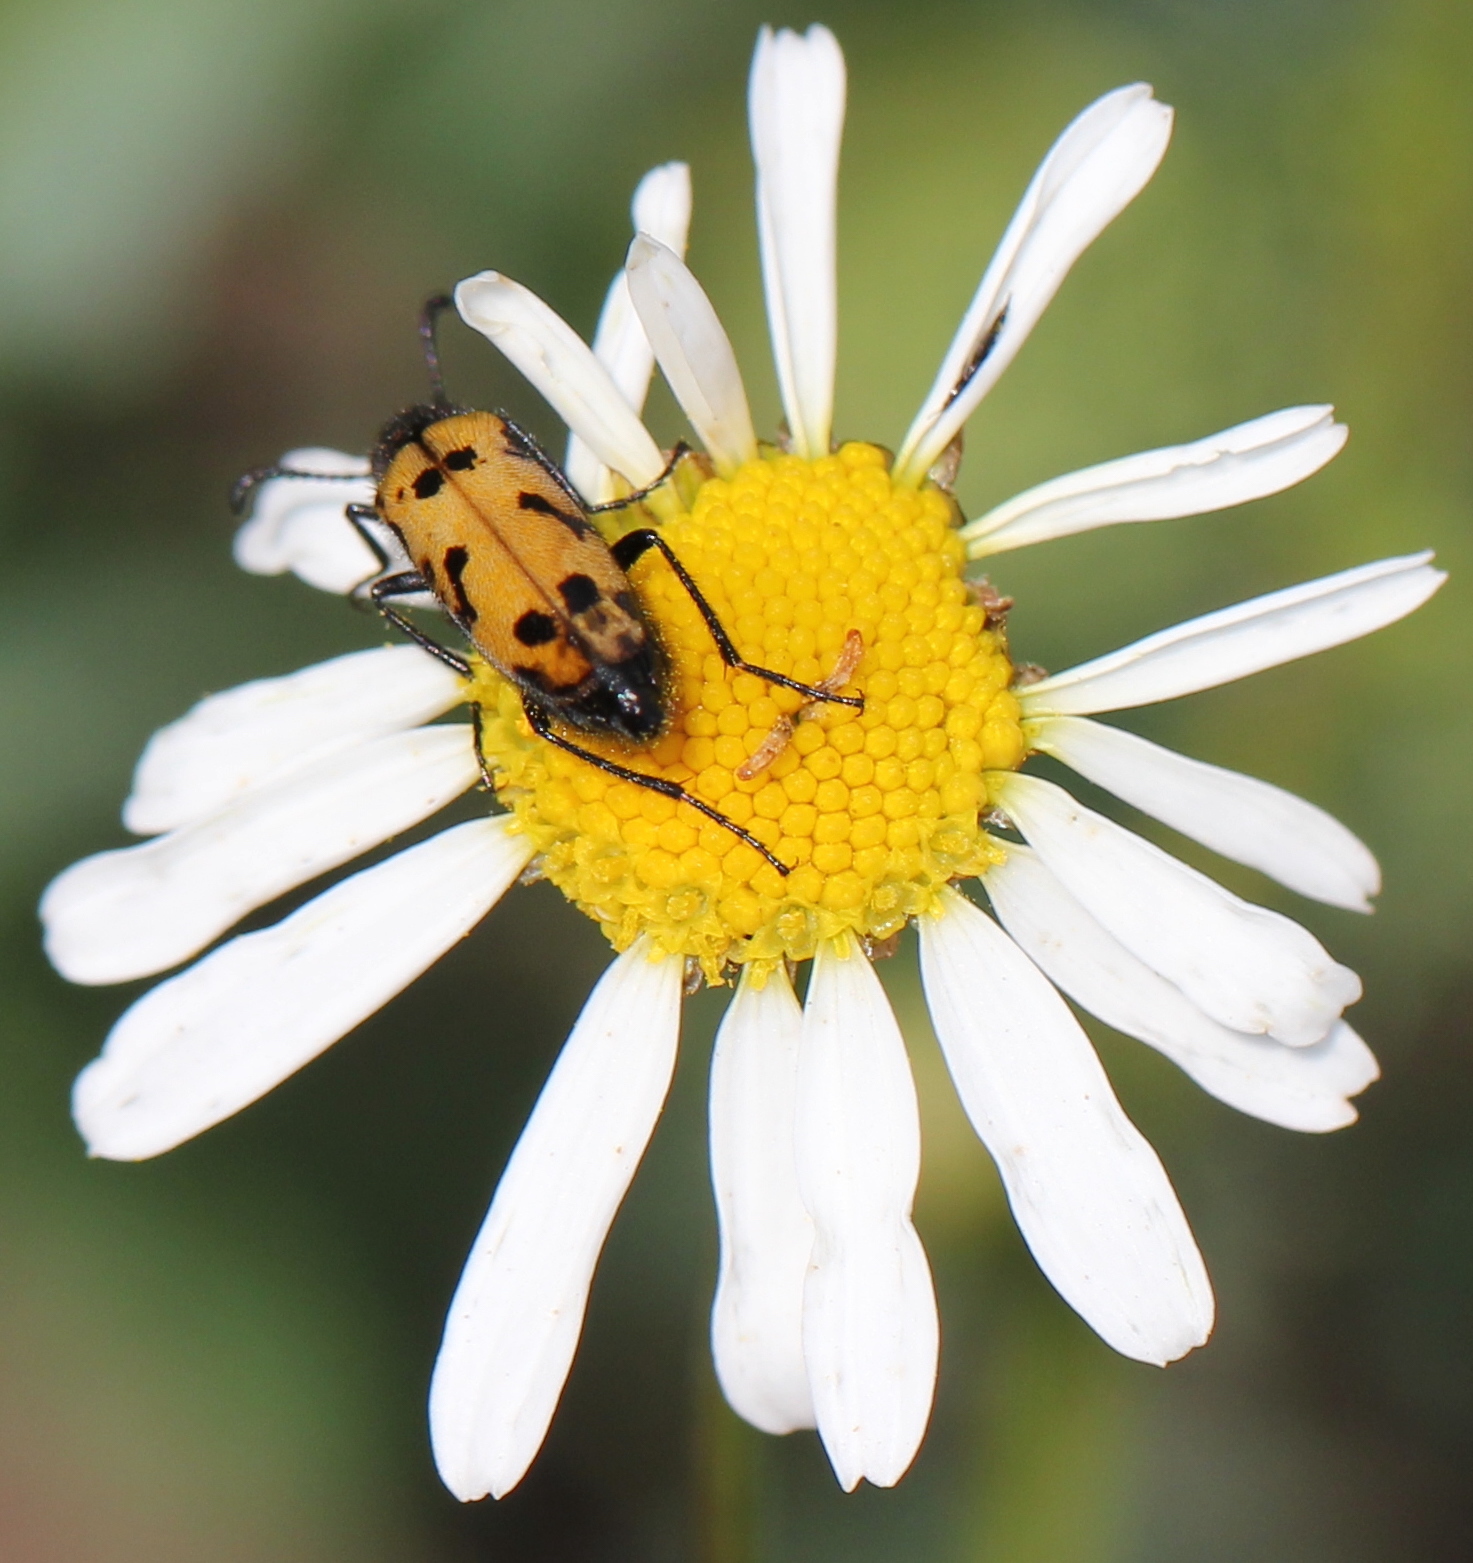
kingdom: Animalia
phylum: Arthropoda
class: Insecta
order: Coleoptera
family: Meloidae
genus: Mylabris
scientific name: Mylabris geminata
